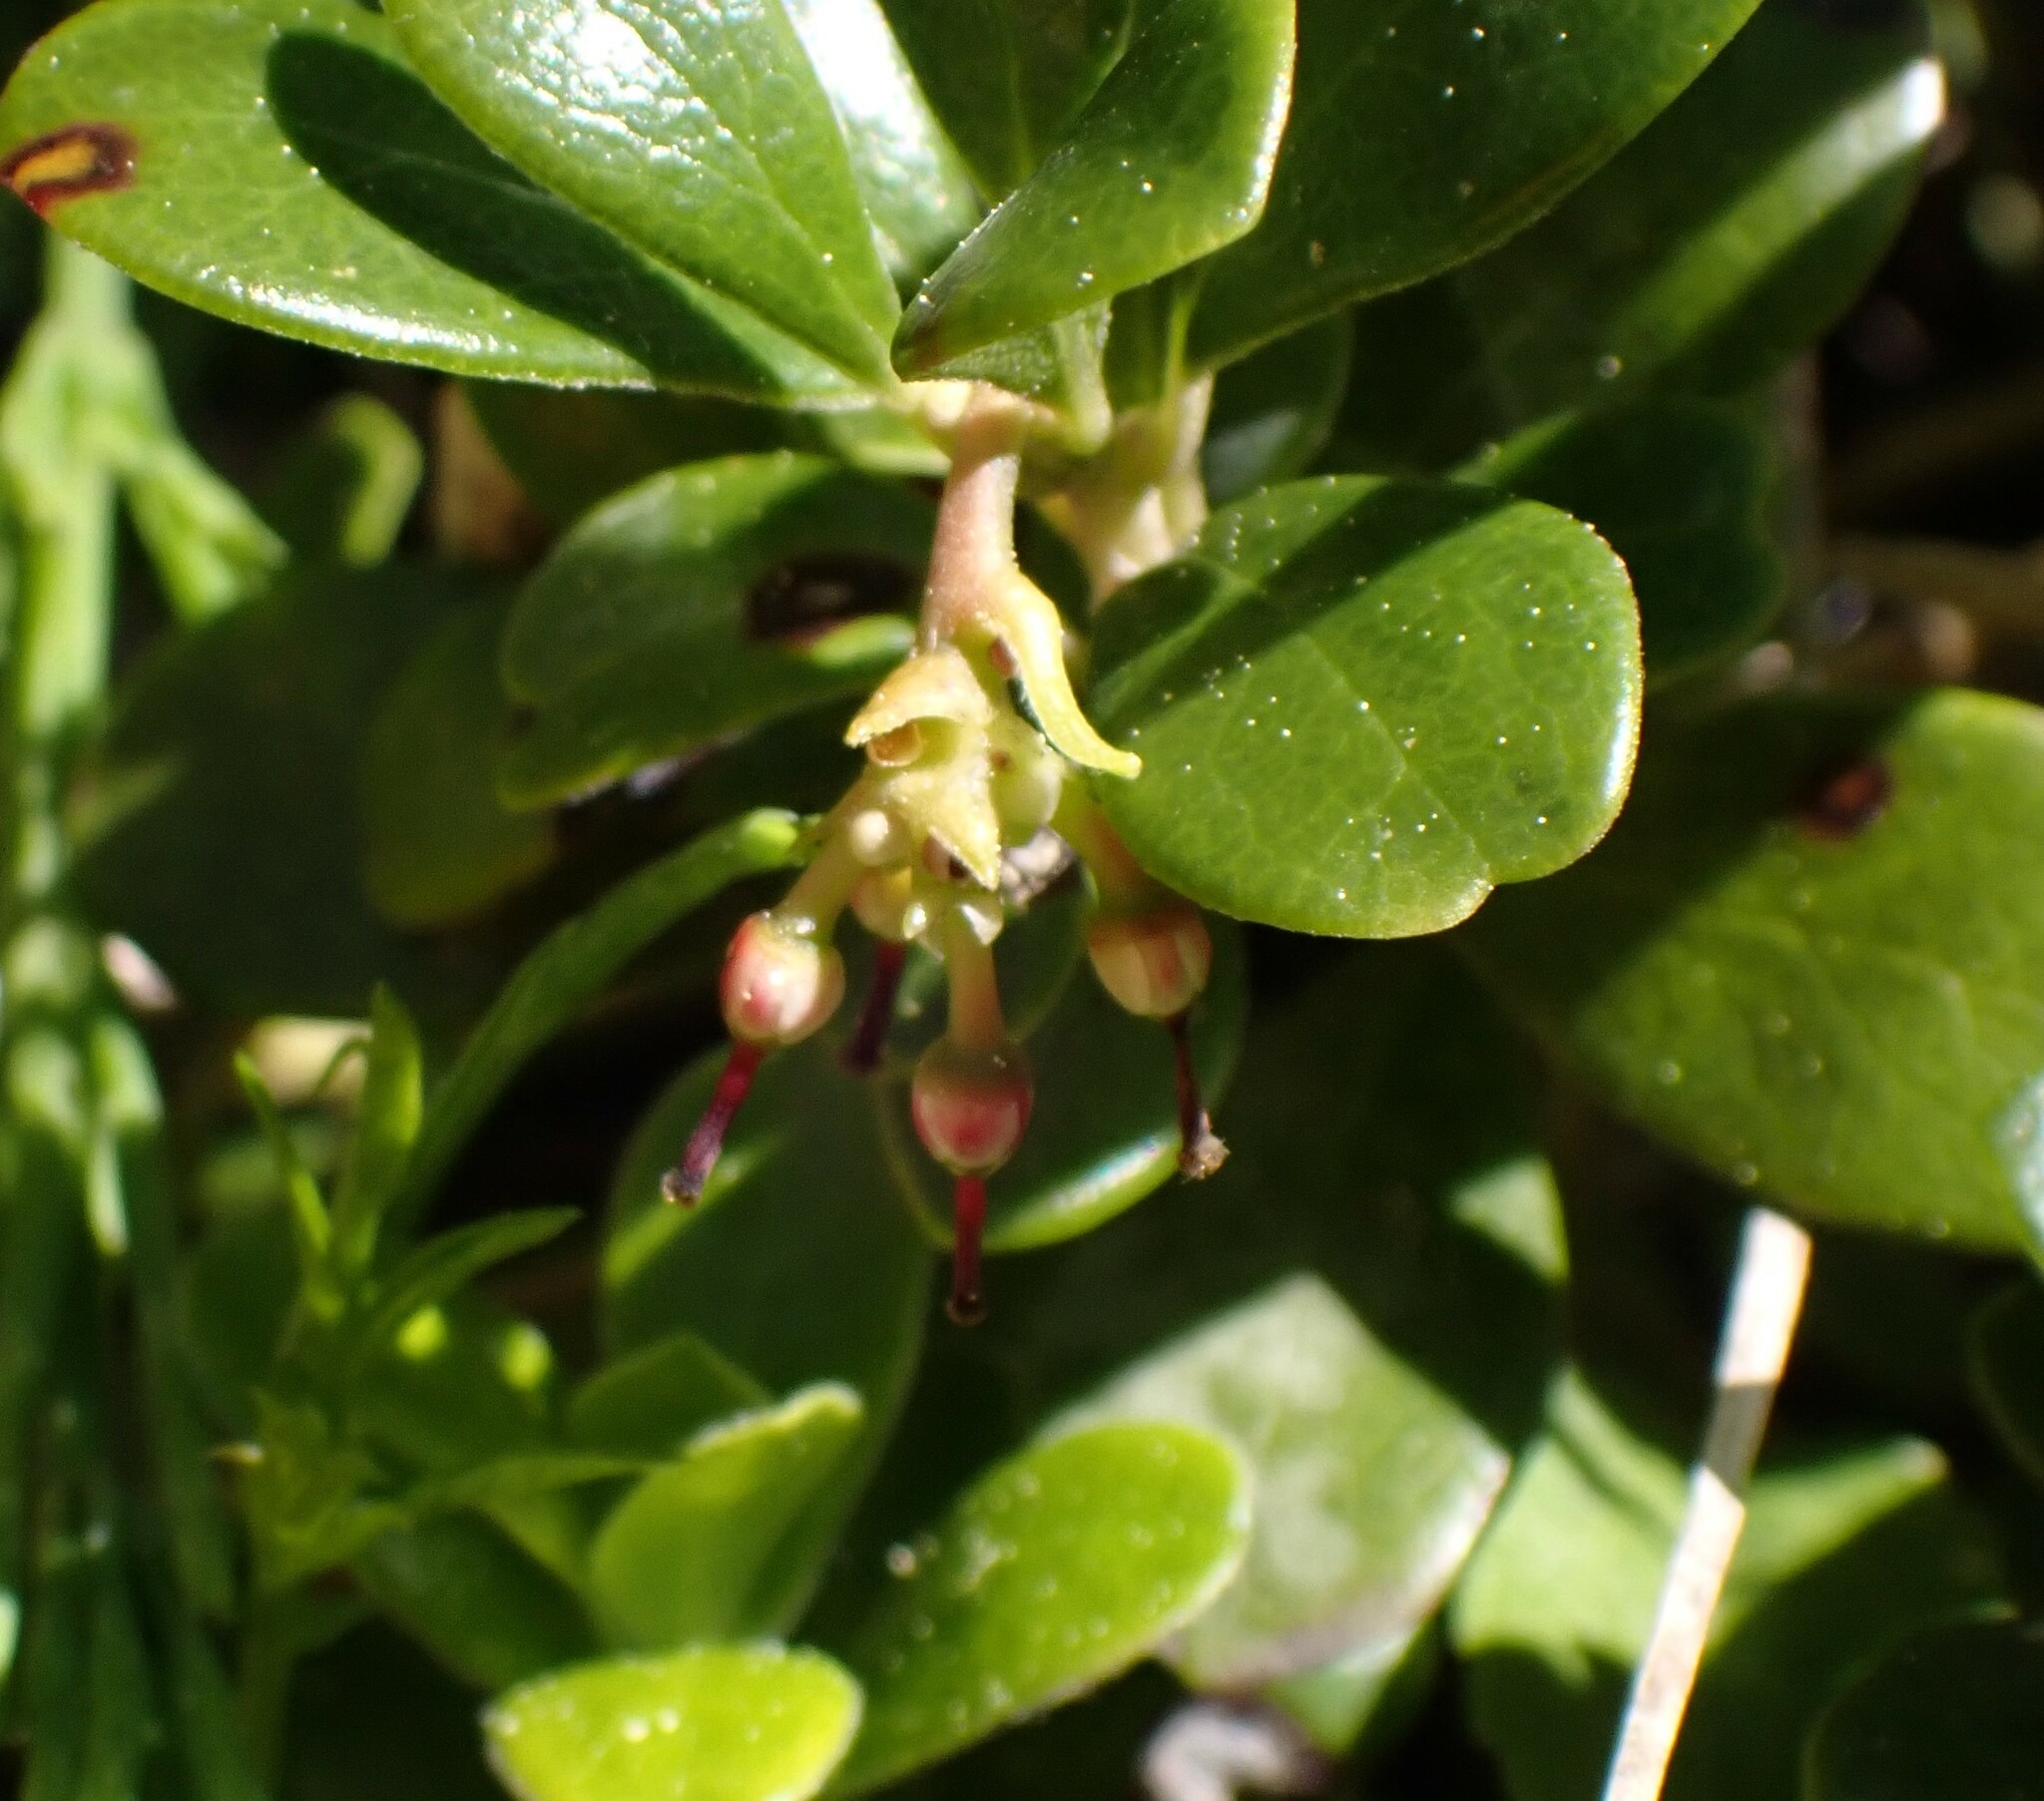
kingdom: Plantae
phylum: Tracheophyta
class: Magnoliopsida
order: Ericales
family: Ericaceae
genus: Arctostaphylos
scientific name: Arctostaphylos uva-ursi
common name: Bearberry
